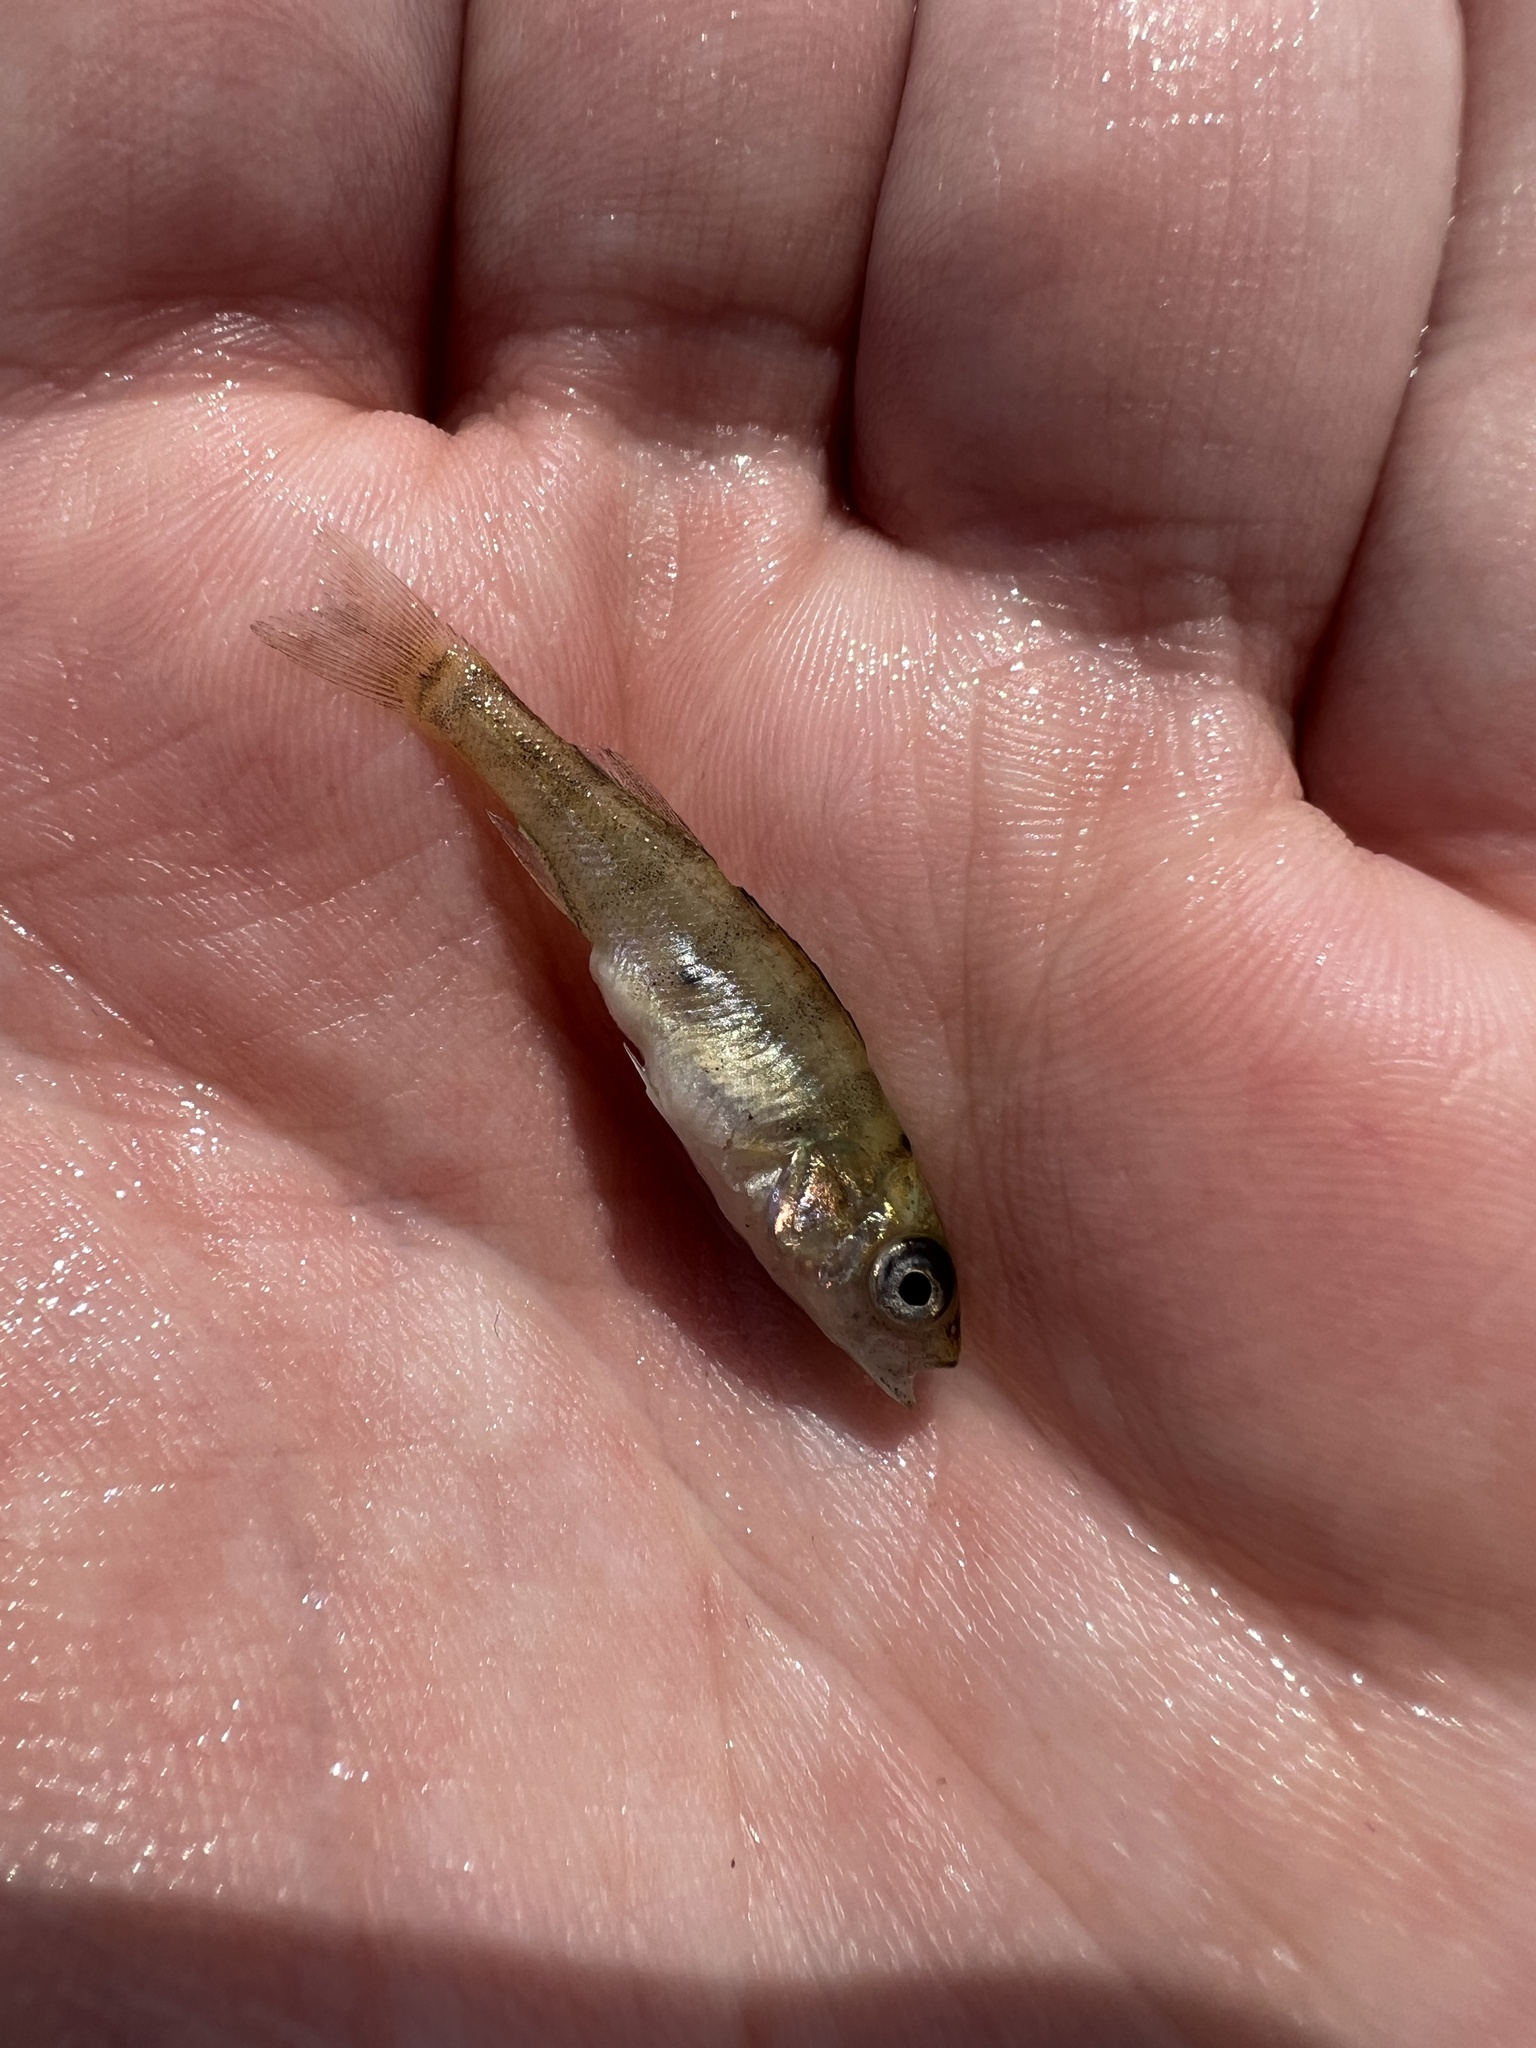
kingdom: Animalia
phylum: Chordata
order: Perciformes
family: Percidae
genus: Perca
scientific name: Perca flavescens
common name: Yellow perch
